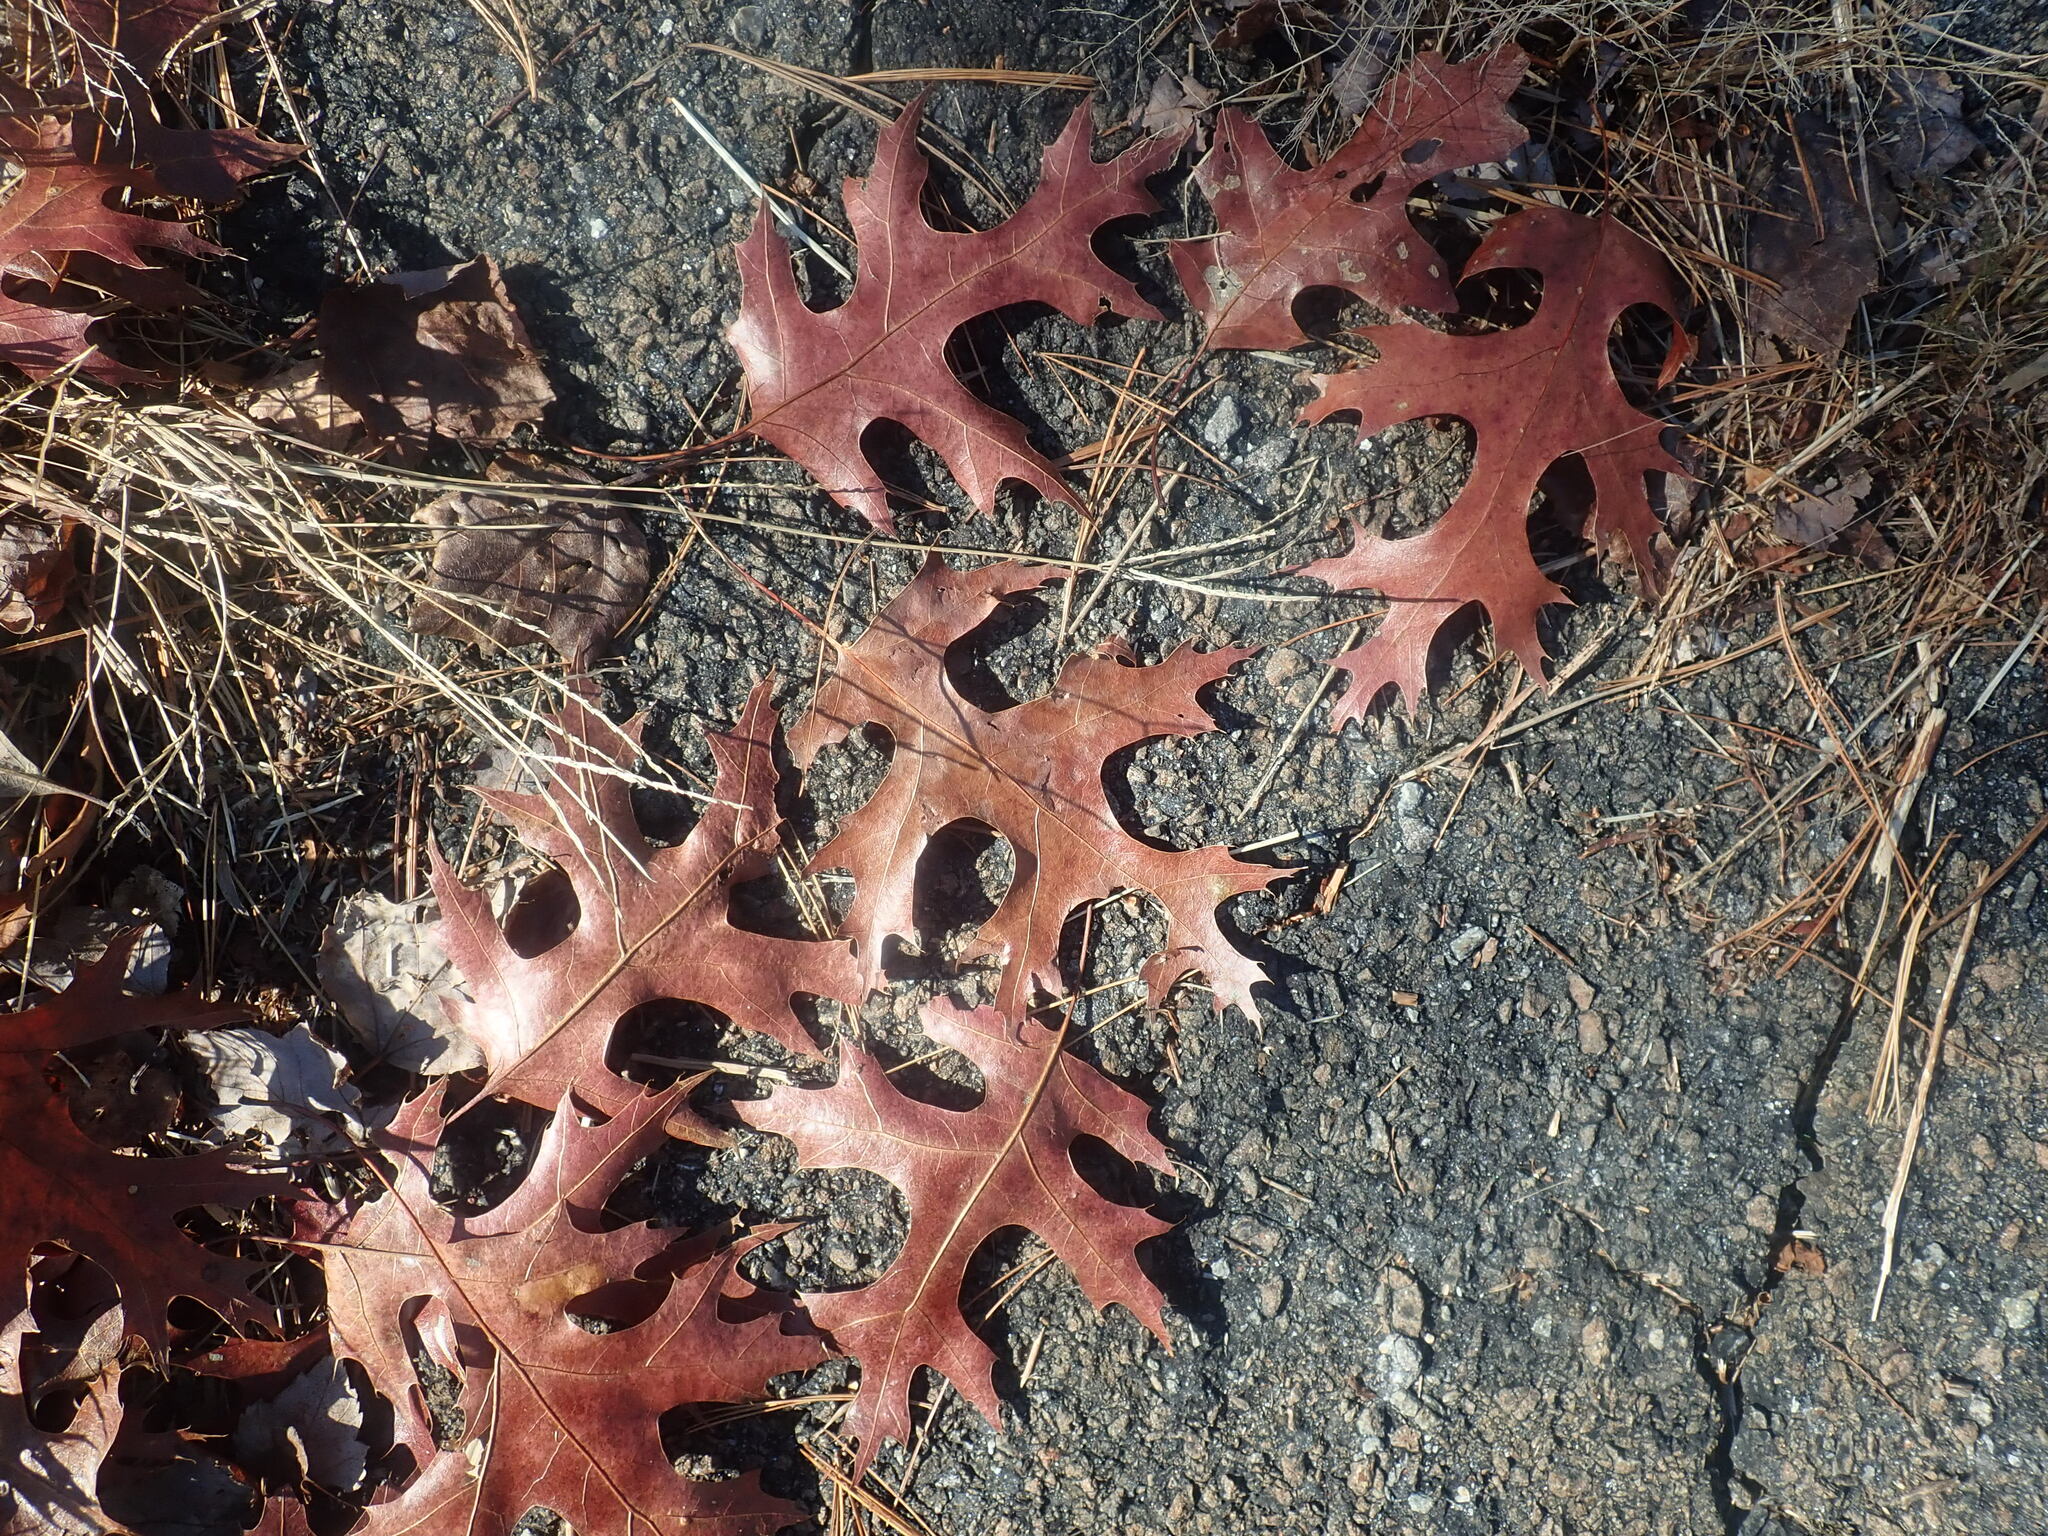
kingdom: Plantae
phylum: Tracheophyta
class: Magnoliopsida
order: Fagales
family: Fagaceae
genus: Quercus
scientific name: Quercus coccinea
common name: Scarlet oak
